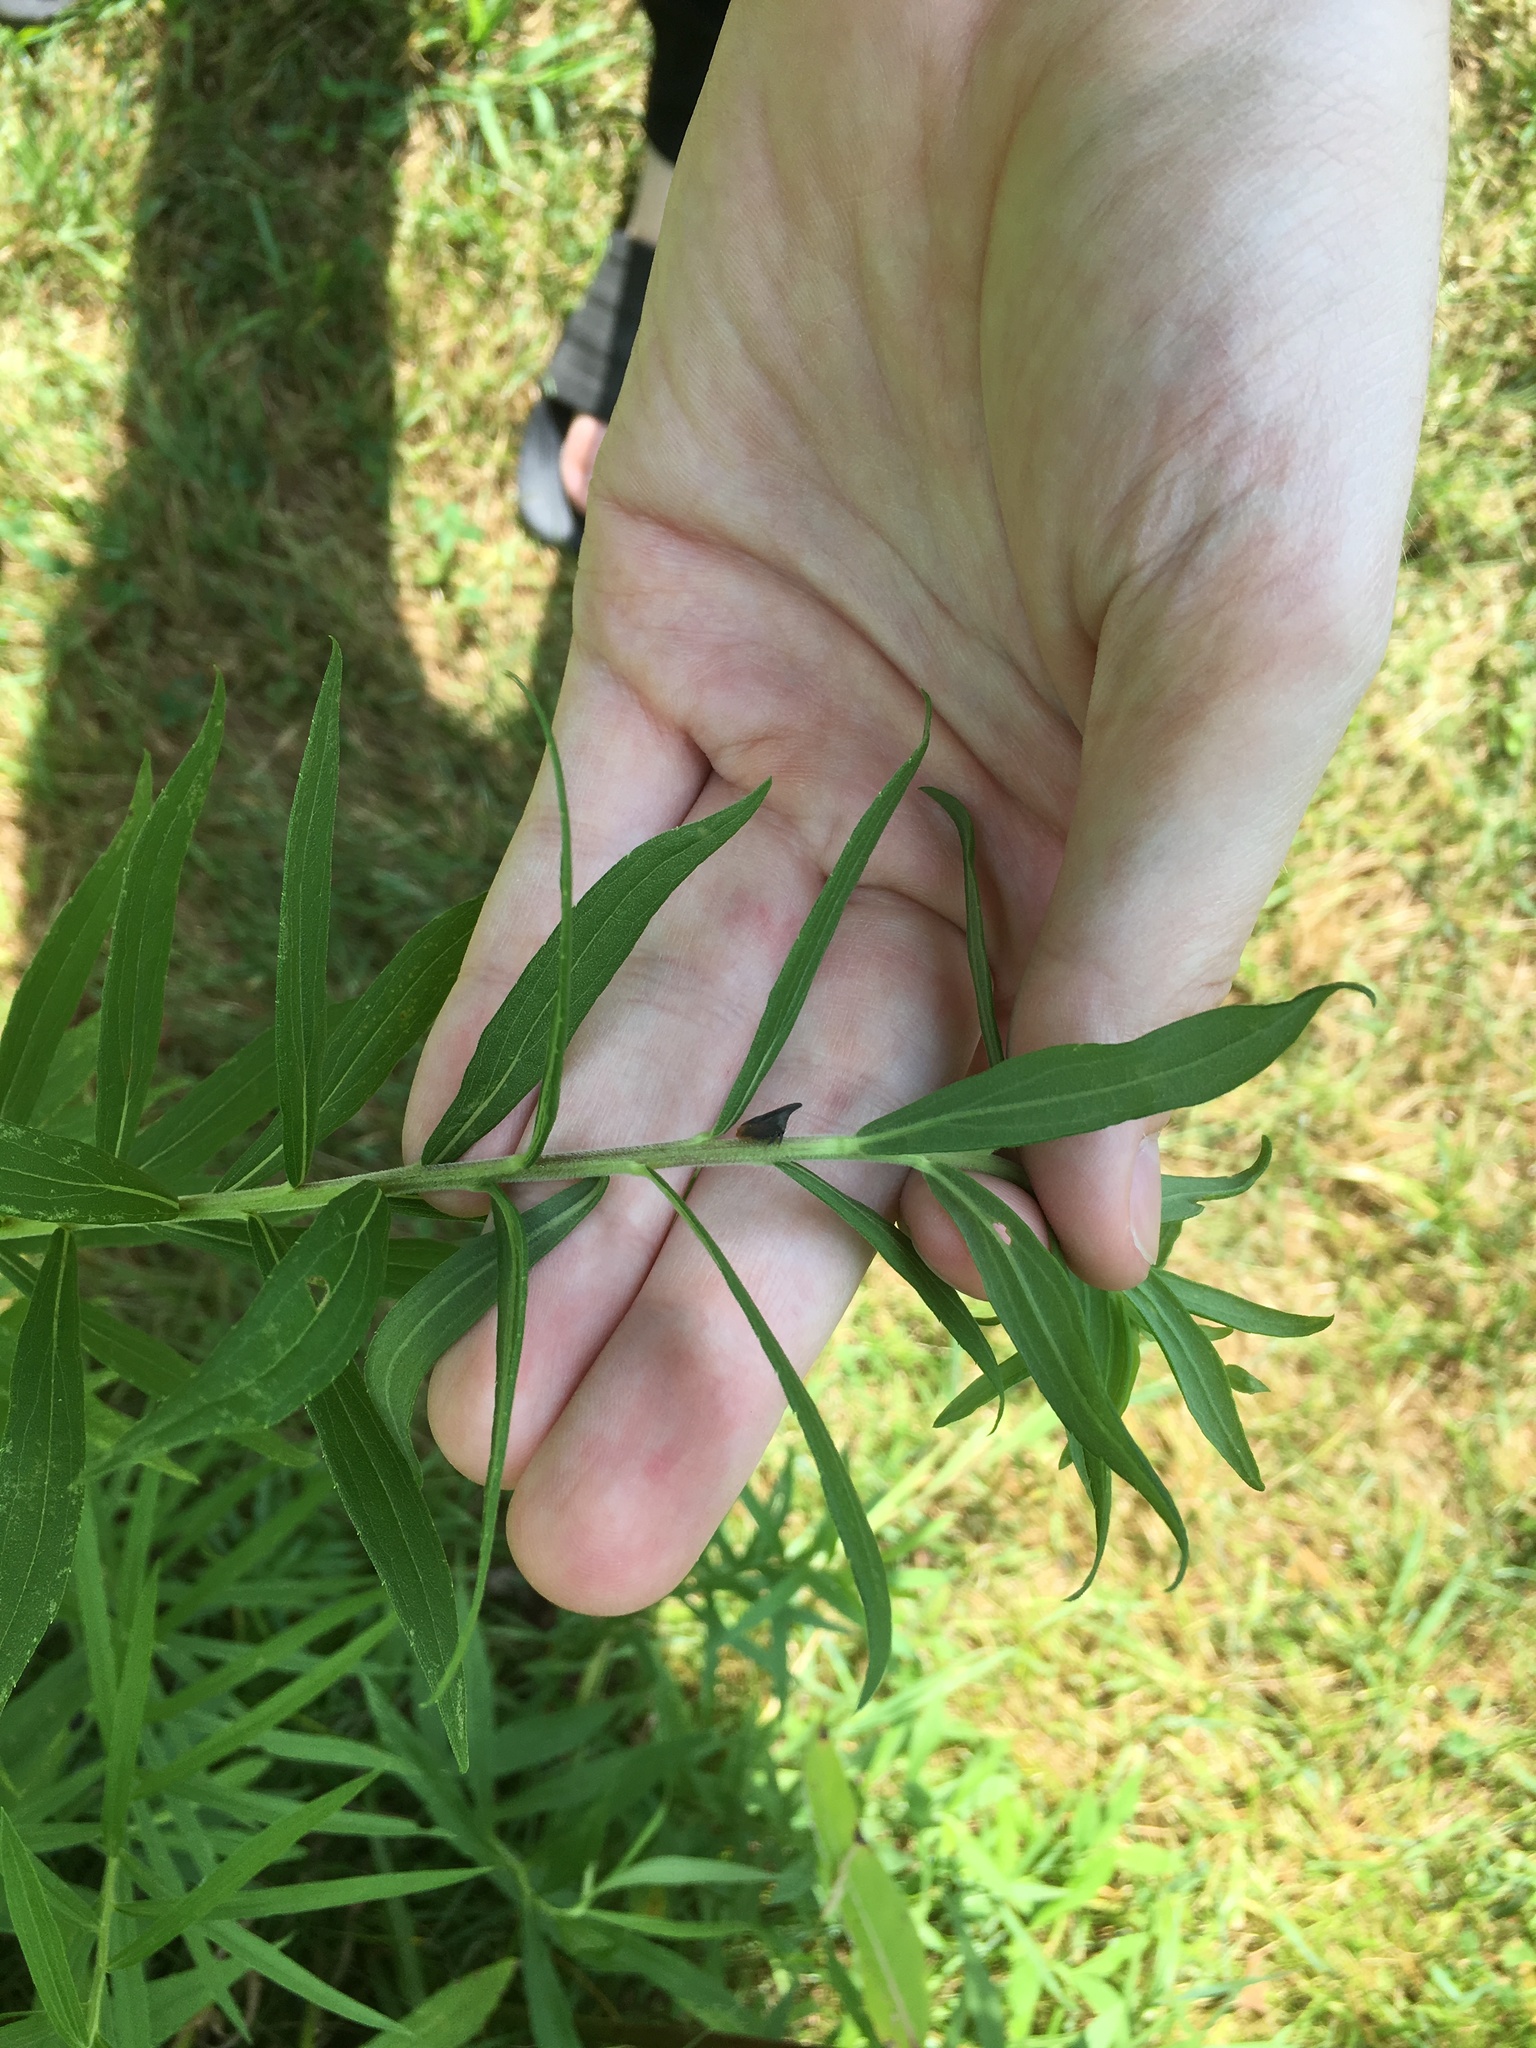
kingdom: Animalia
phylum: Arthropoda
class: Insecta
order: Hemiptera
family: Membracidae
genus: Enchenopa
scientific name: Enchenopa latipes
